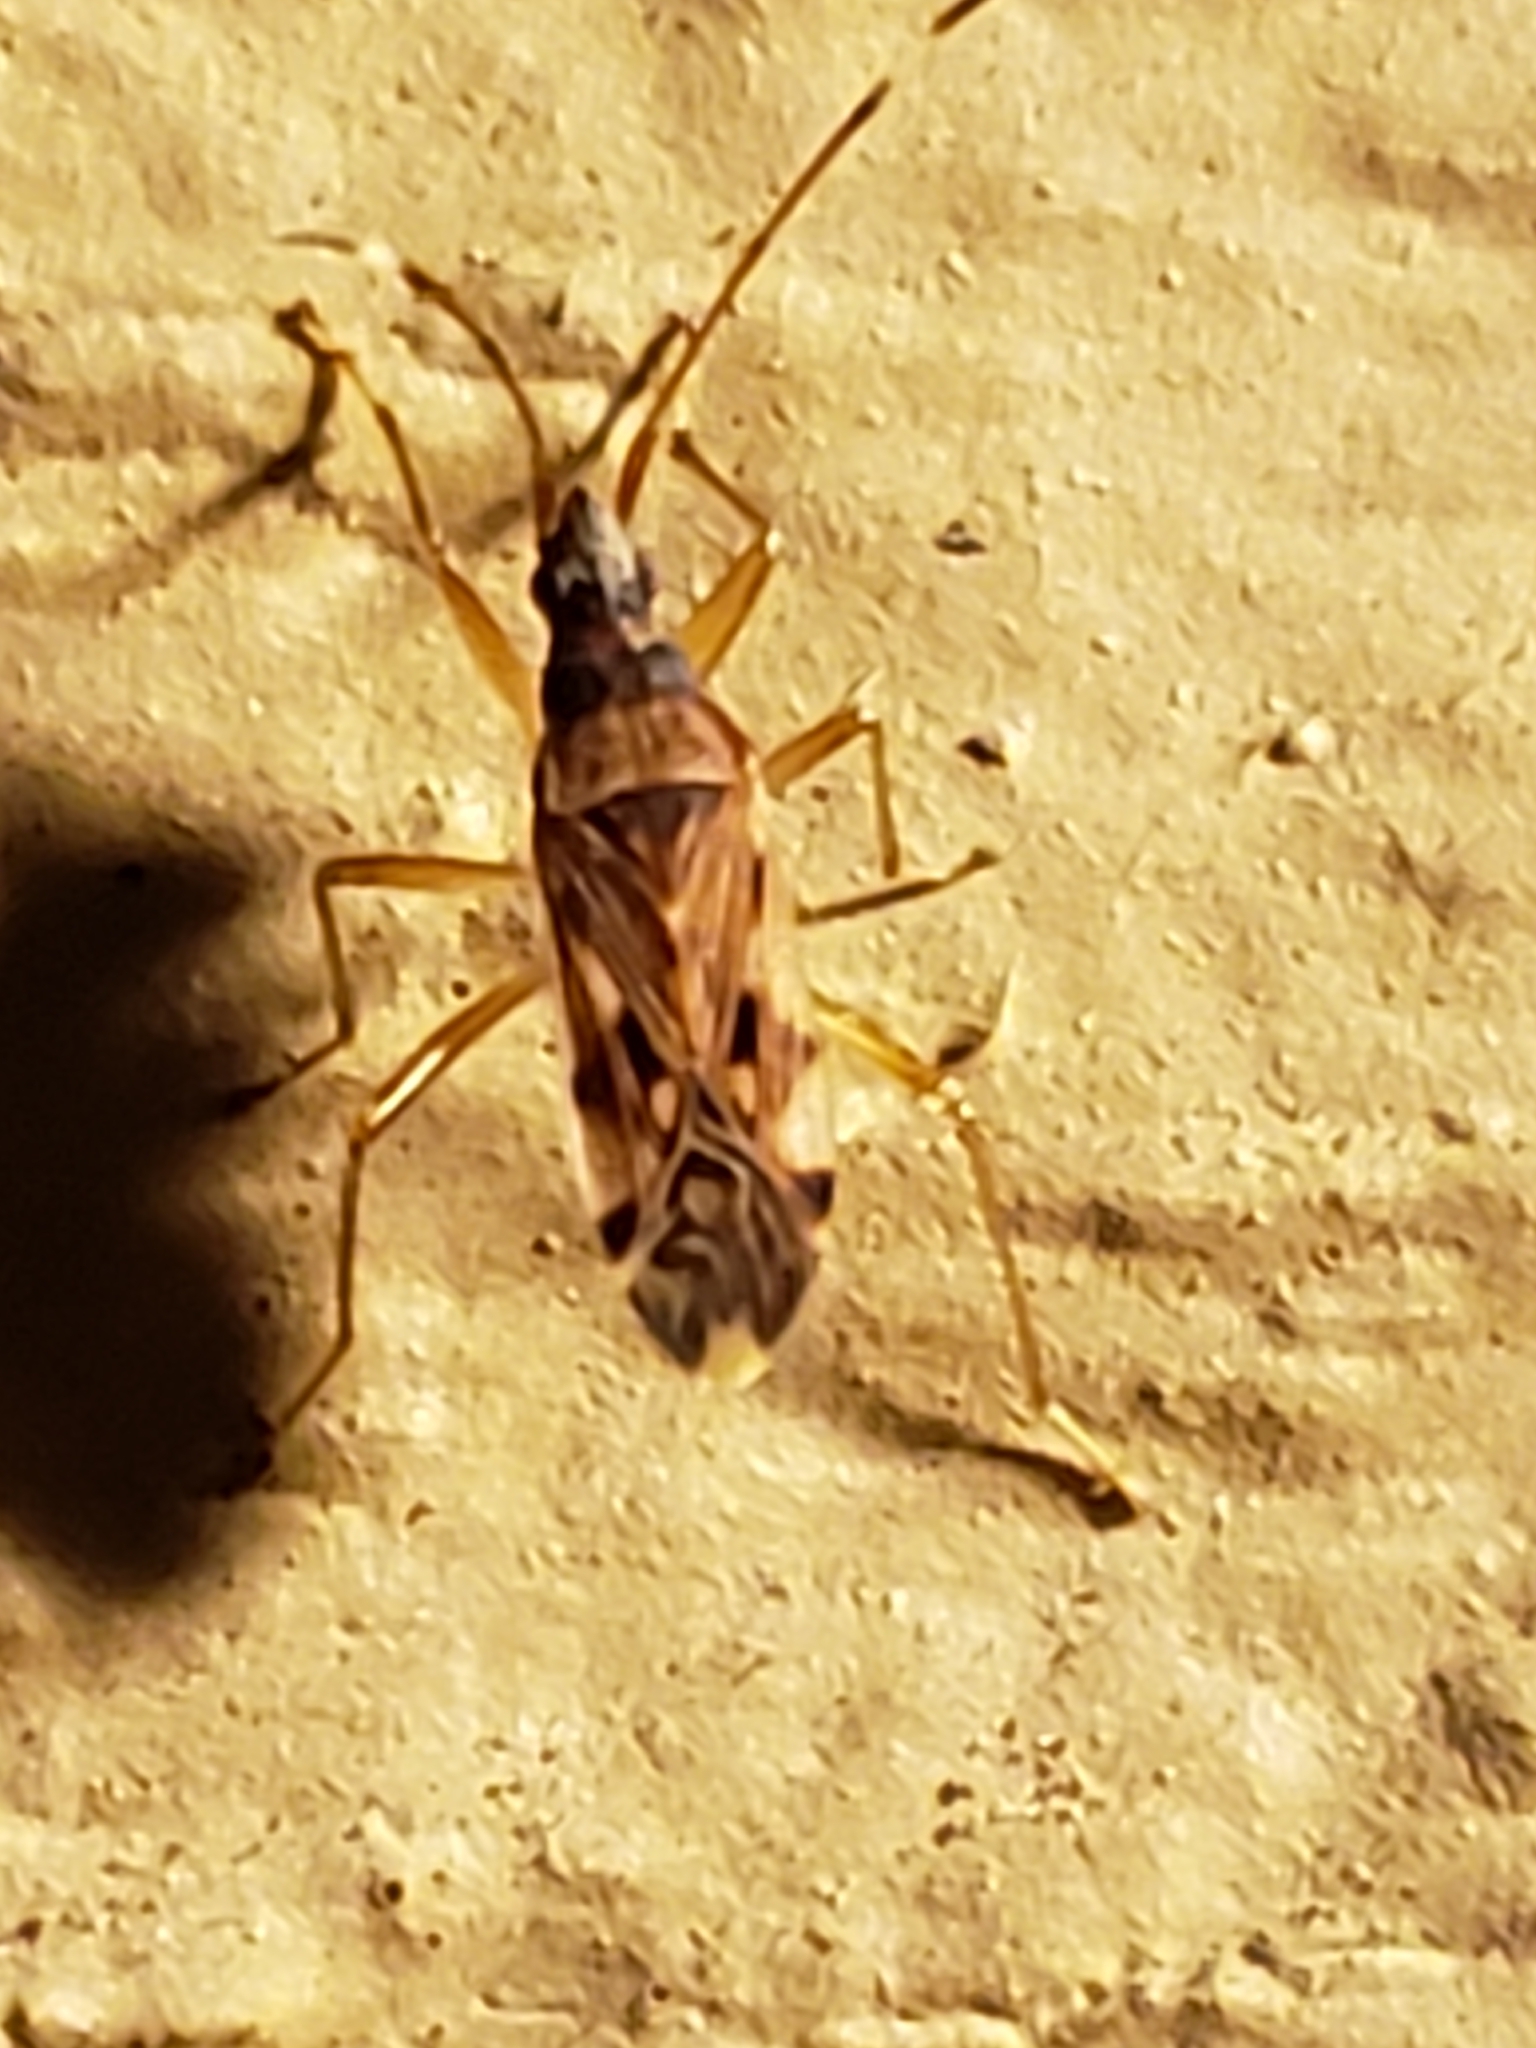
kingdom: Animalia
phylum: Arthropoda
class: Insecta
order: Hemiptera
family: Rhyparochromidae
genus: Ozophora
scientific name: Ozophora picturata
